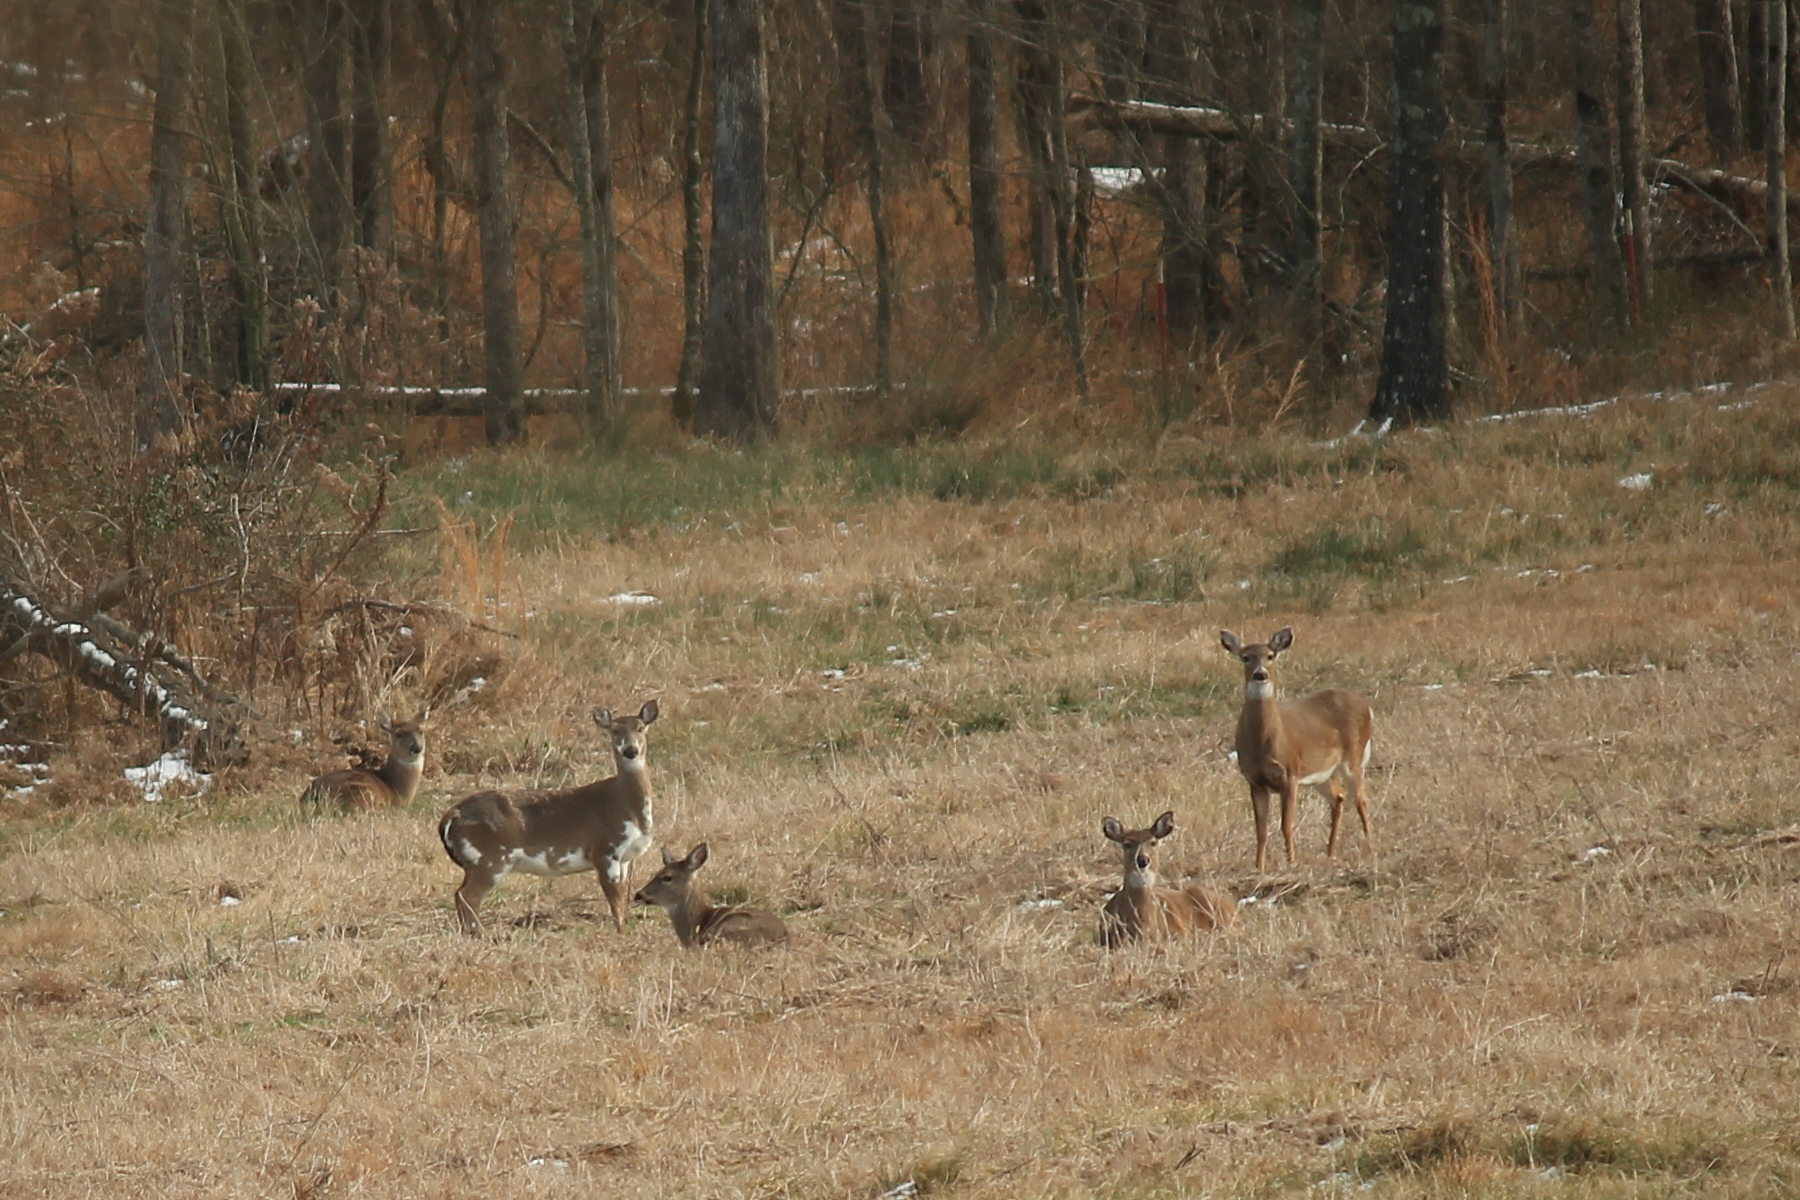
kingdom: Animalia
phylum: Chordata
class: Mammalia
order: Artiodactyla
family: Cervidae
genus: Odocoileus
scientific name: Odocoileus virginianus
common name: White-tailed deer
